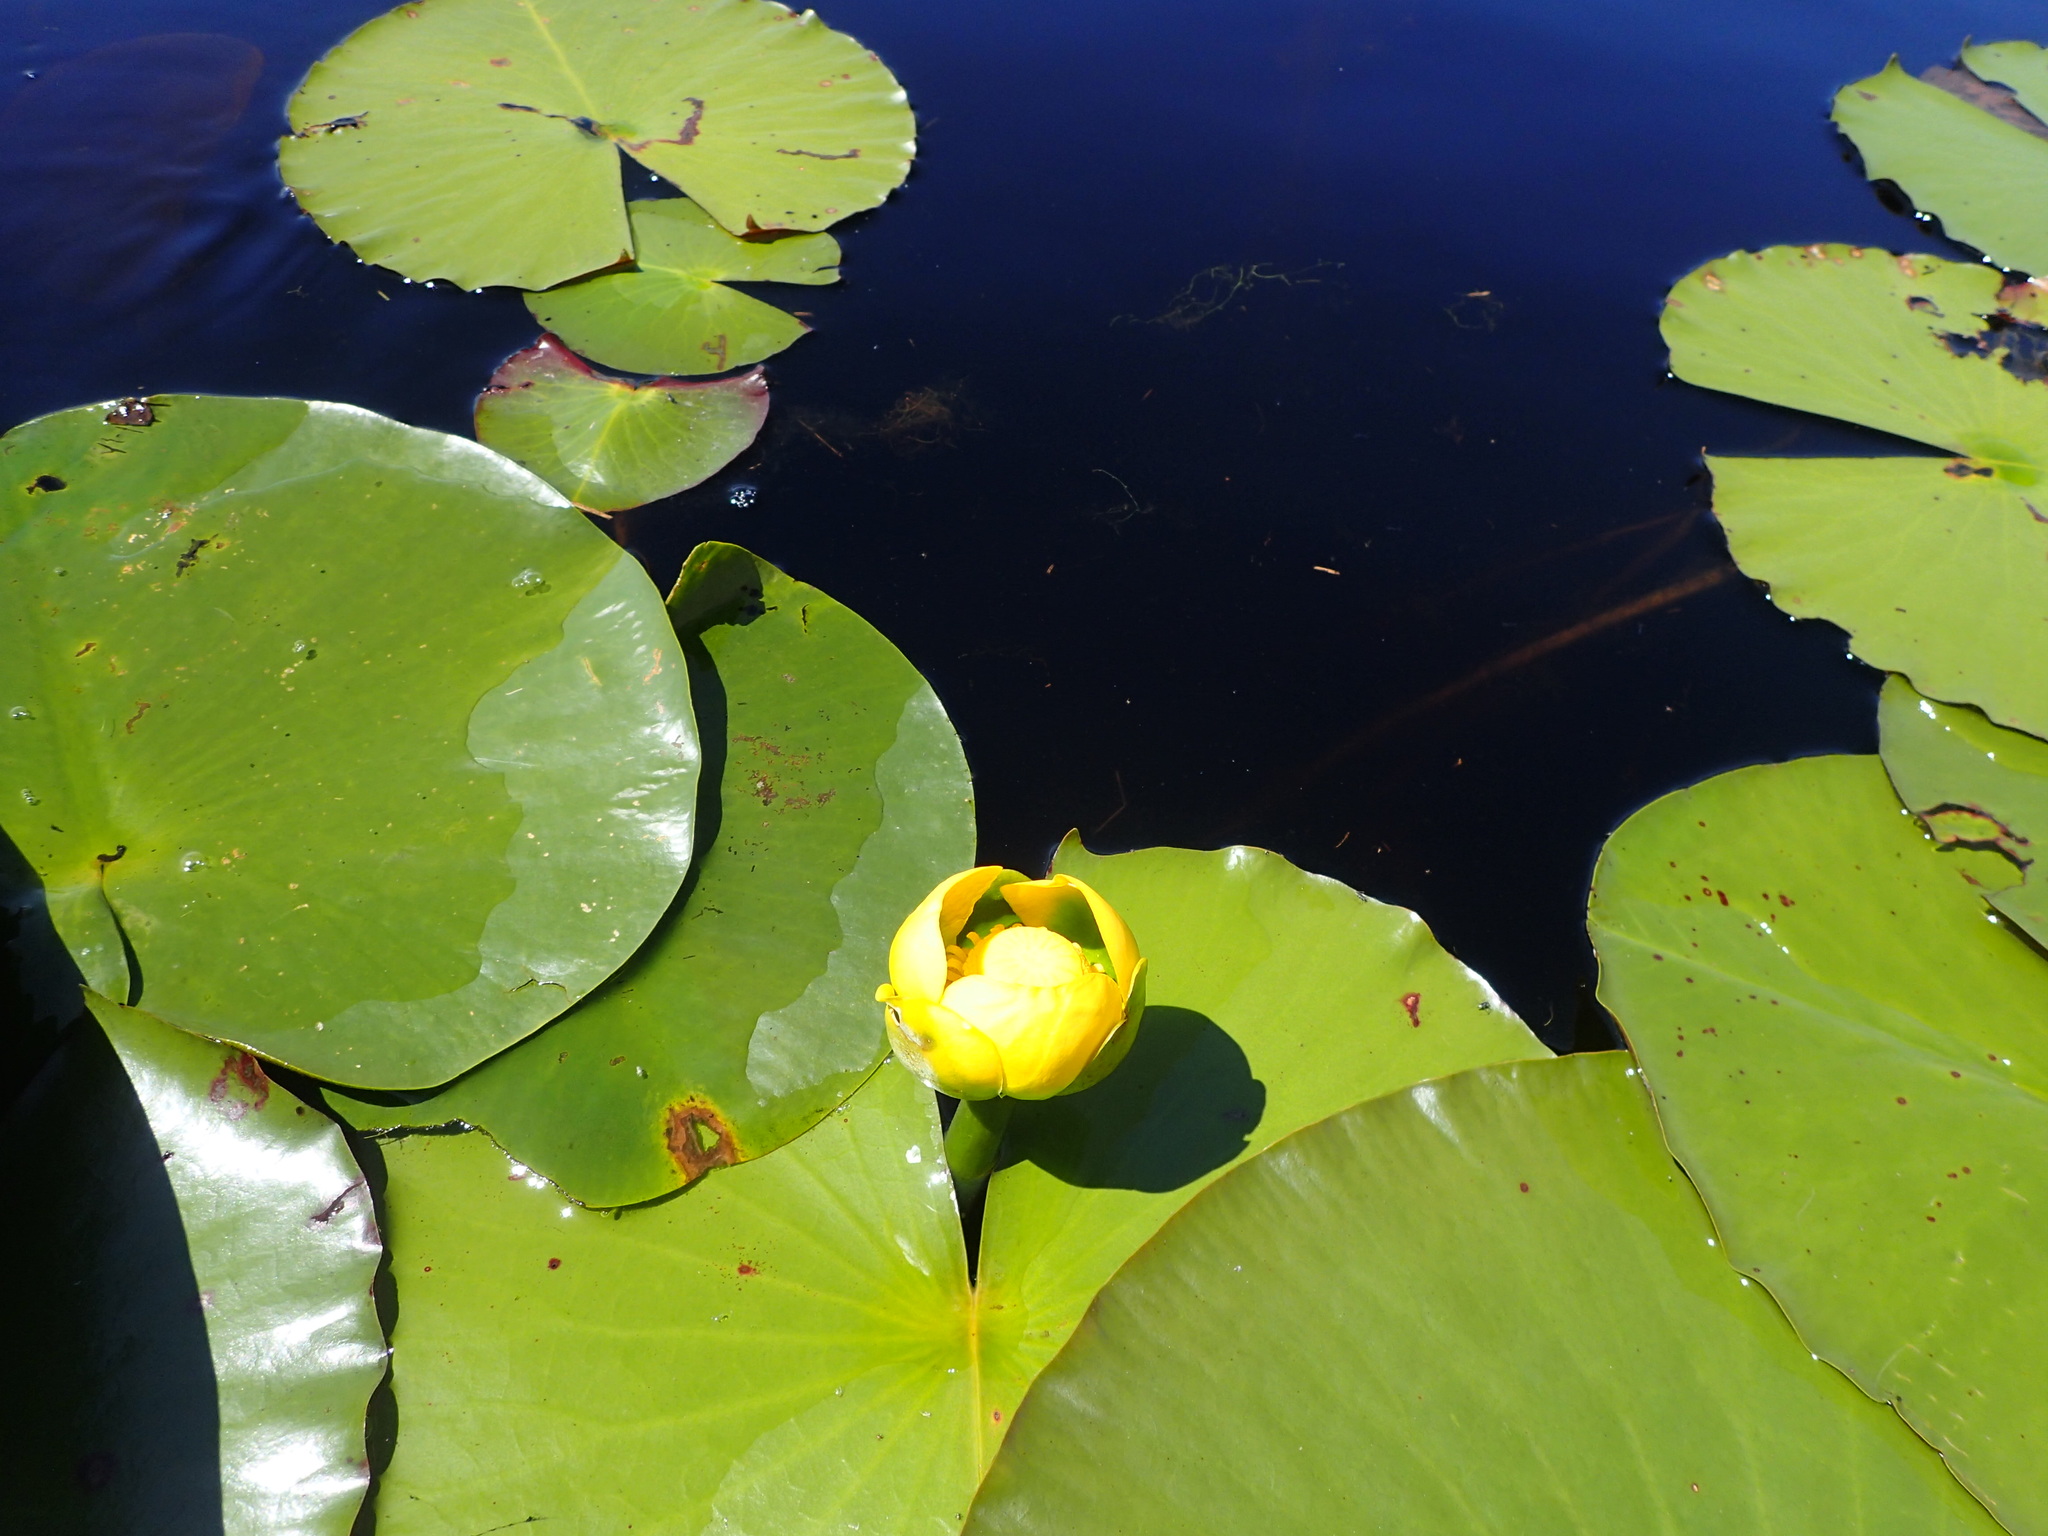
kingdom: Plantae
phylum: Tracheophyta
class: Magnoliopsida
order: Nymphaeales
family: Nymphaeaceae
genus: Nuphar
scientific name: Nuphar advena
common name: Spatter-dock
